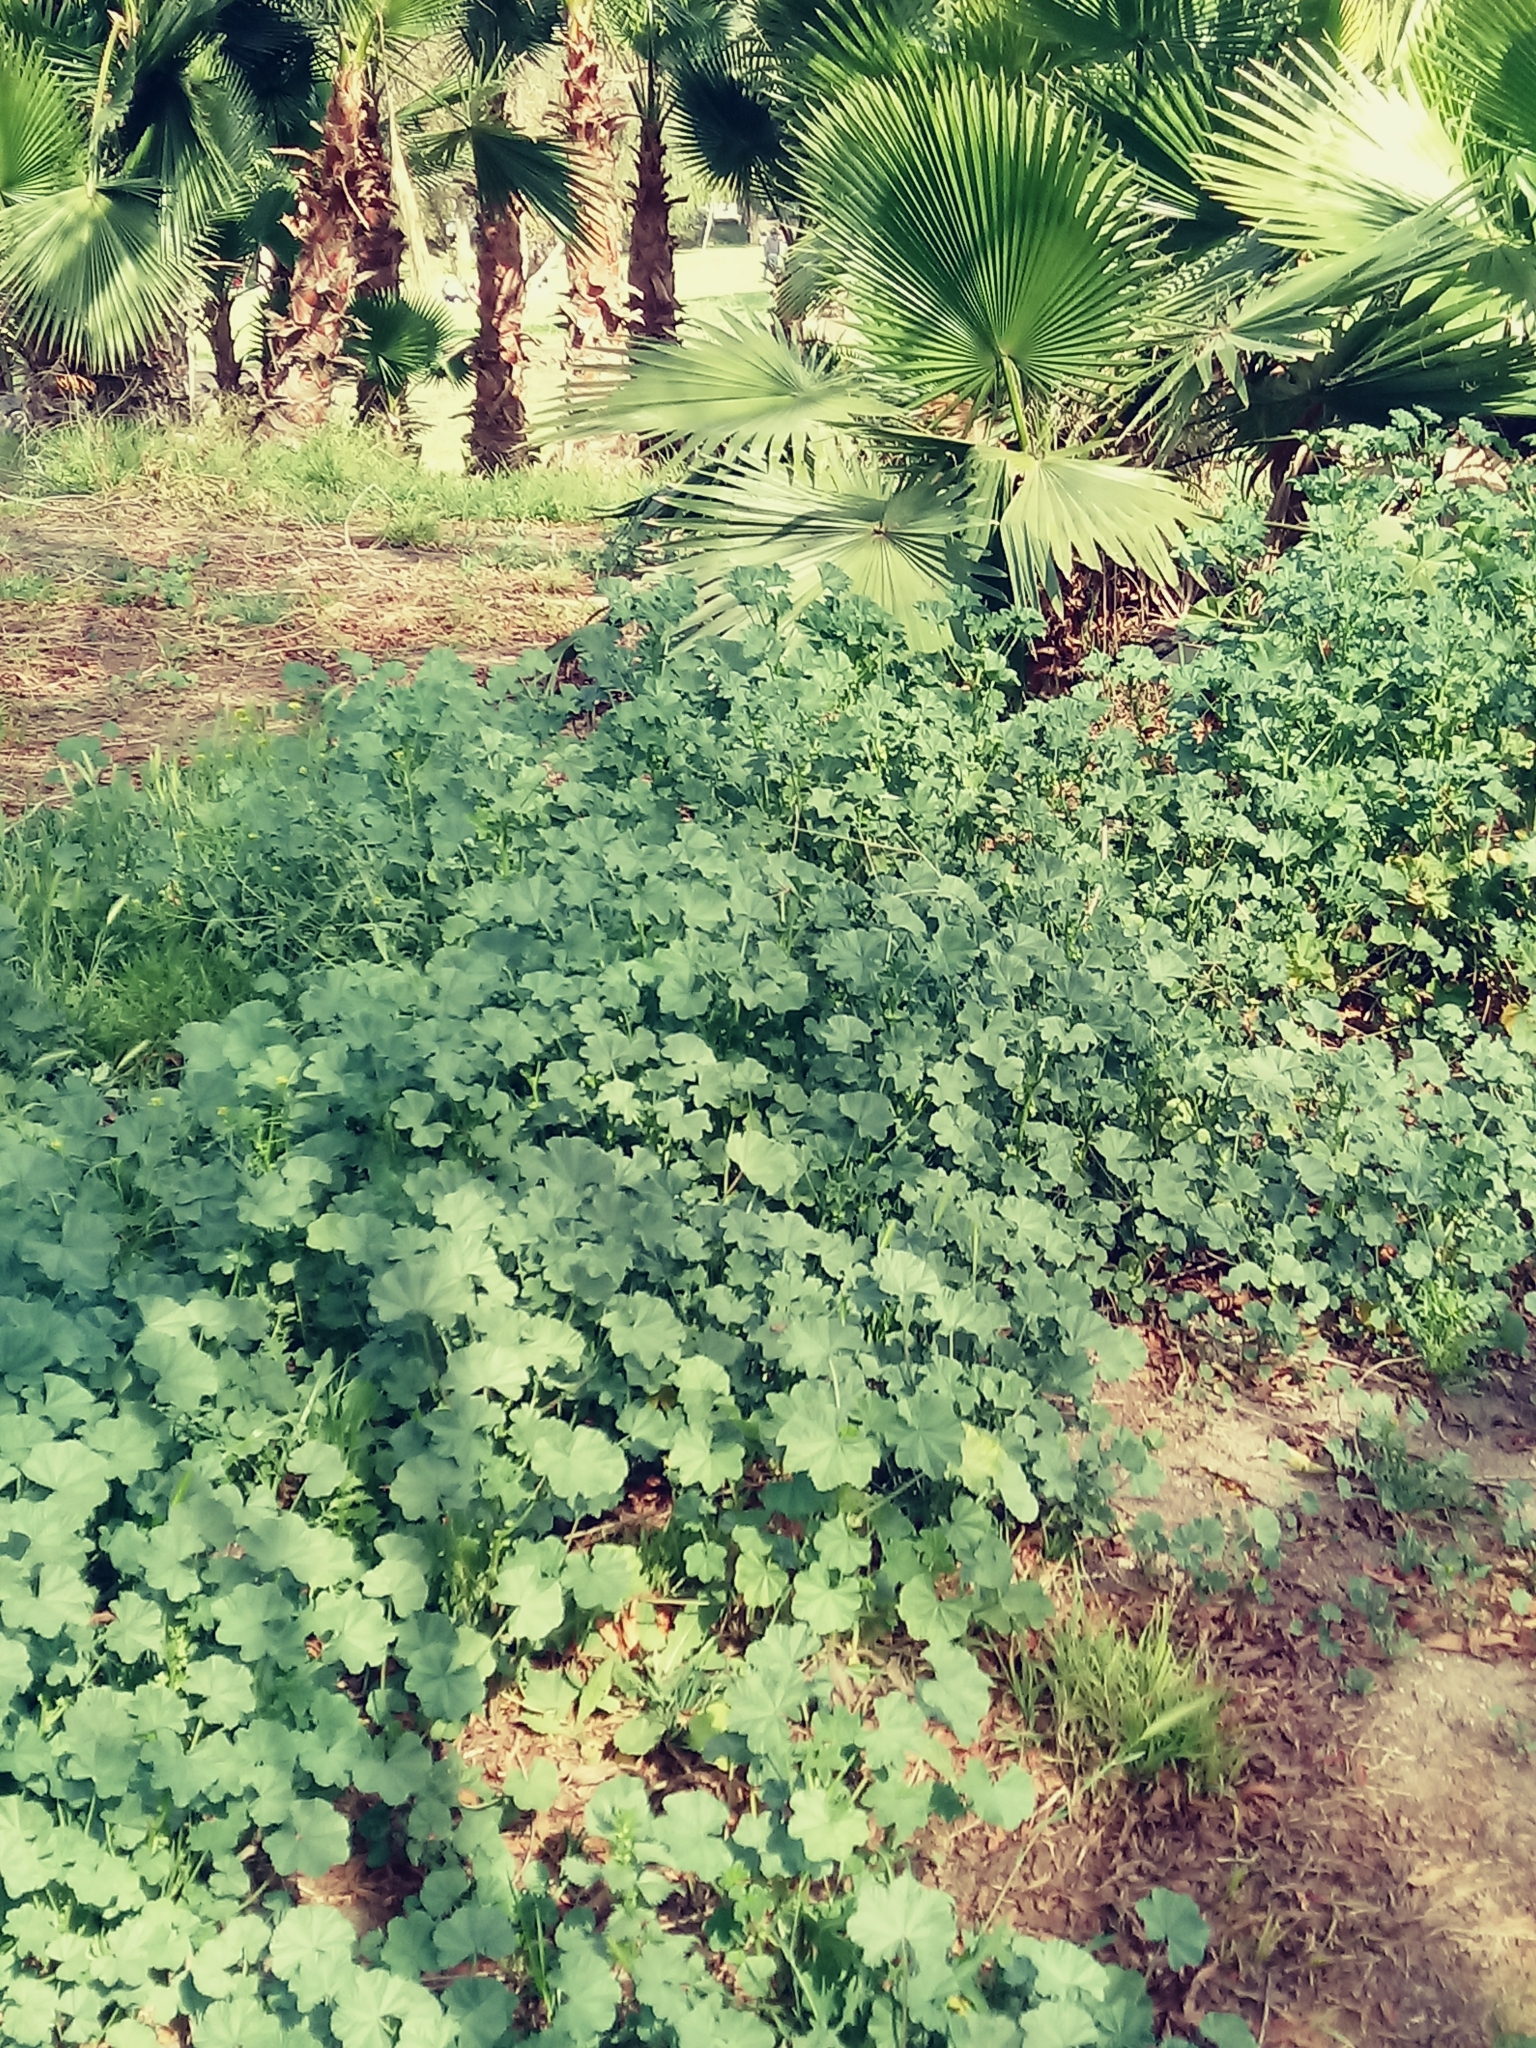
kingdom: Plantae
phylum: Tracheophyta
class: Magnoliopsida
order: Malvales
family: Malvaceae
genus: Malva
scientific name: Malva parviflora
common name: Least mallow
